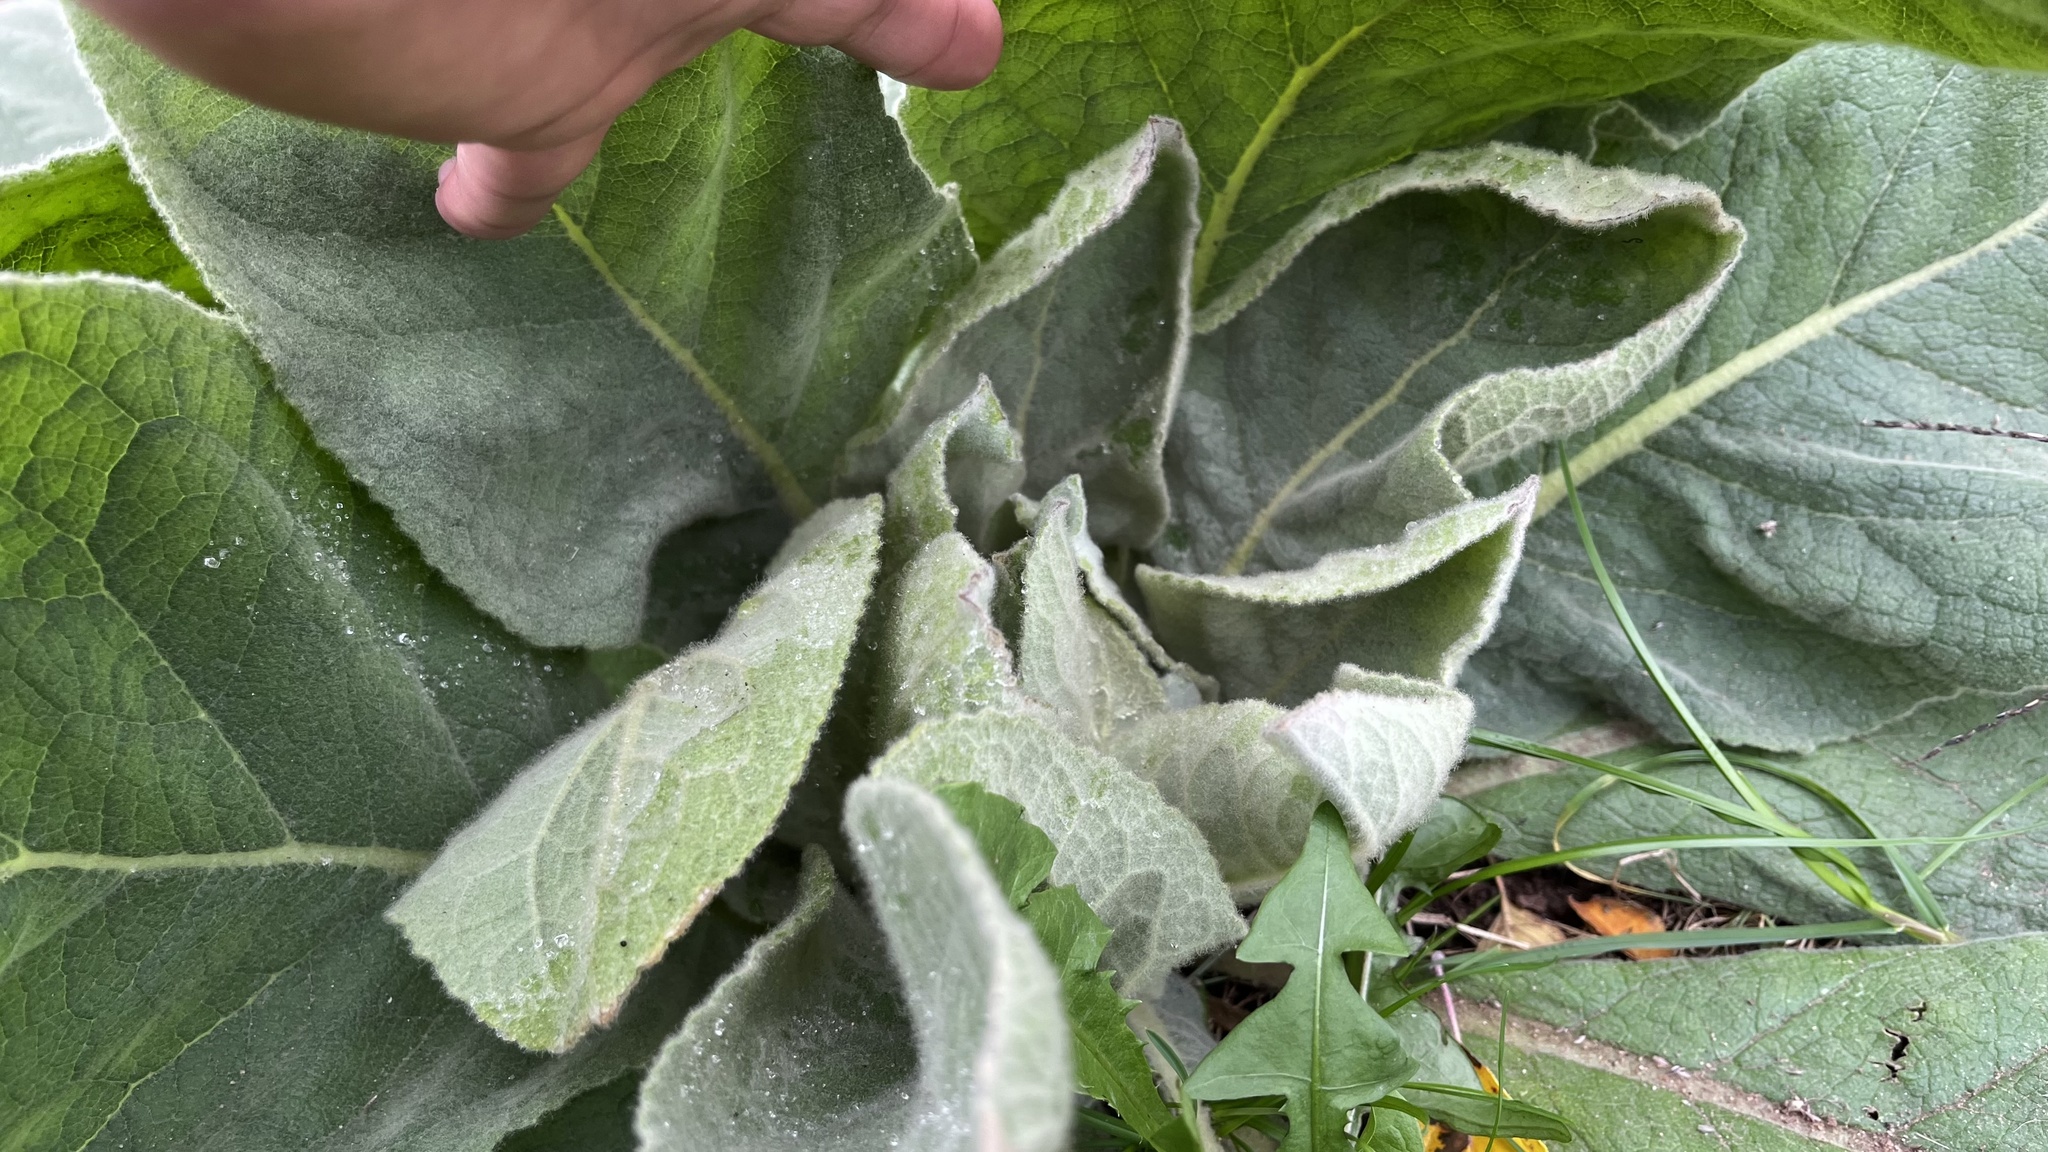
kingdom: Plantae
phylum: Tracheophyta
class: Magnoliopsida
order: Lamiales
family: Scrophulariaceae
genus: Verbascum
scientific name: Verbascum thapsus
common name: Common mullein
